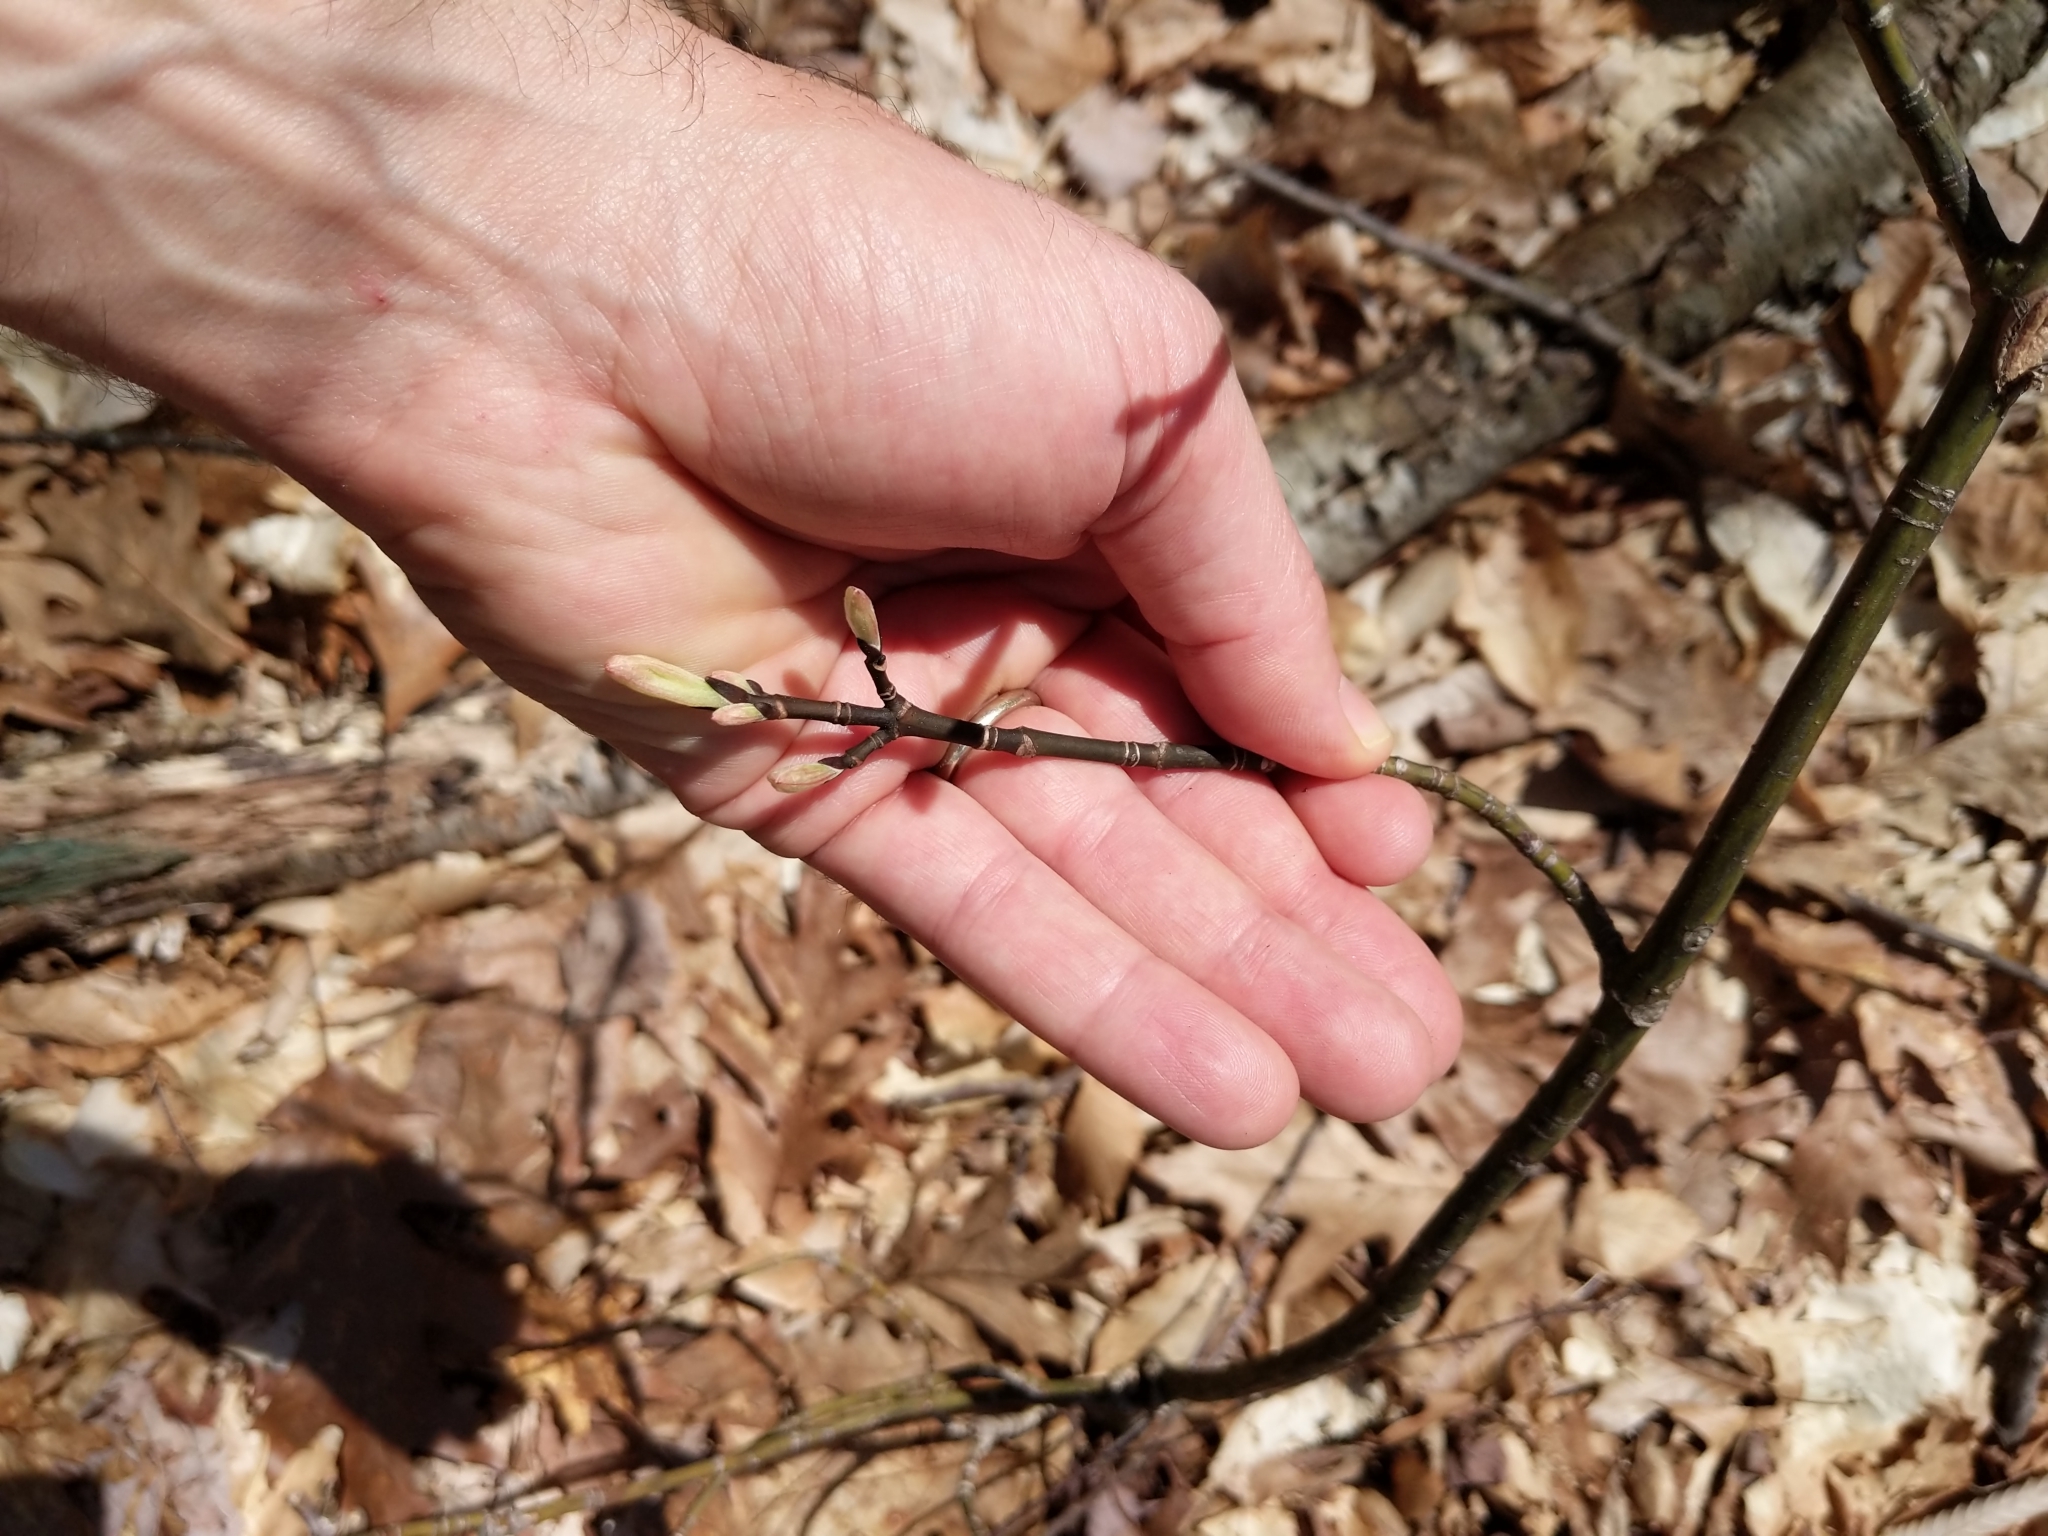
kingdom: Plantae
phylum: Tracheophyta
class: Magnoliopsida
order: Sapindales
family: Sapindaceae
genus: Acer
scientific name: Acer pensylvanicum
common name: Moosewood
